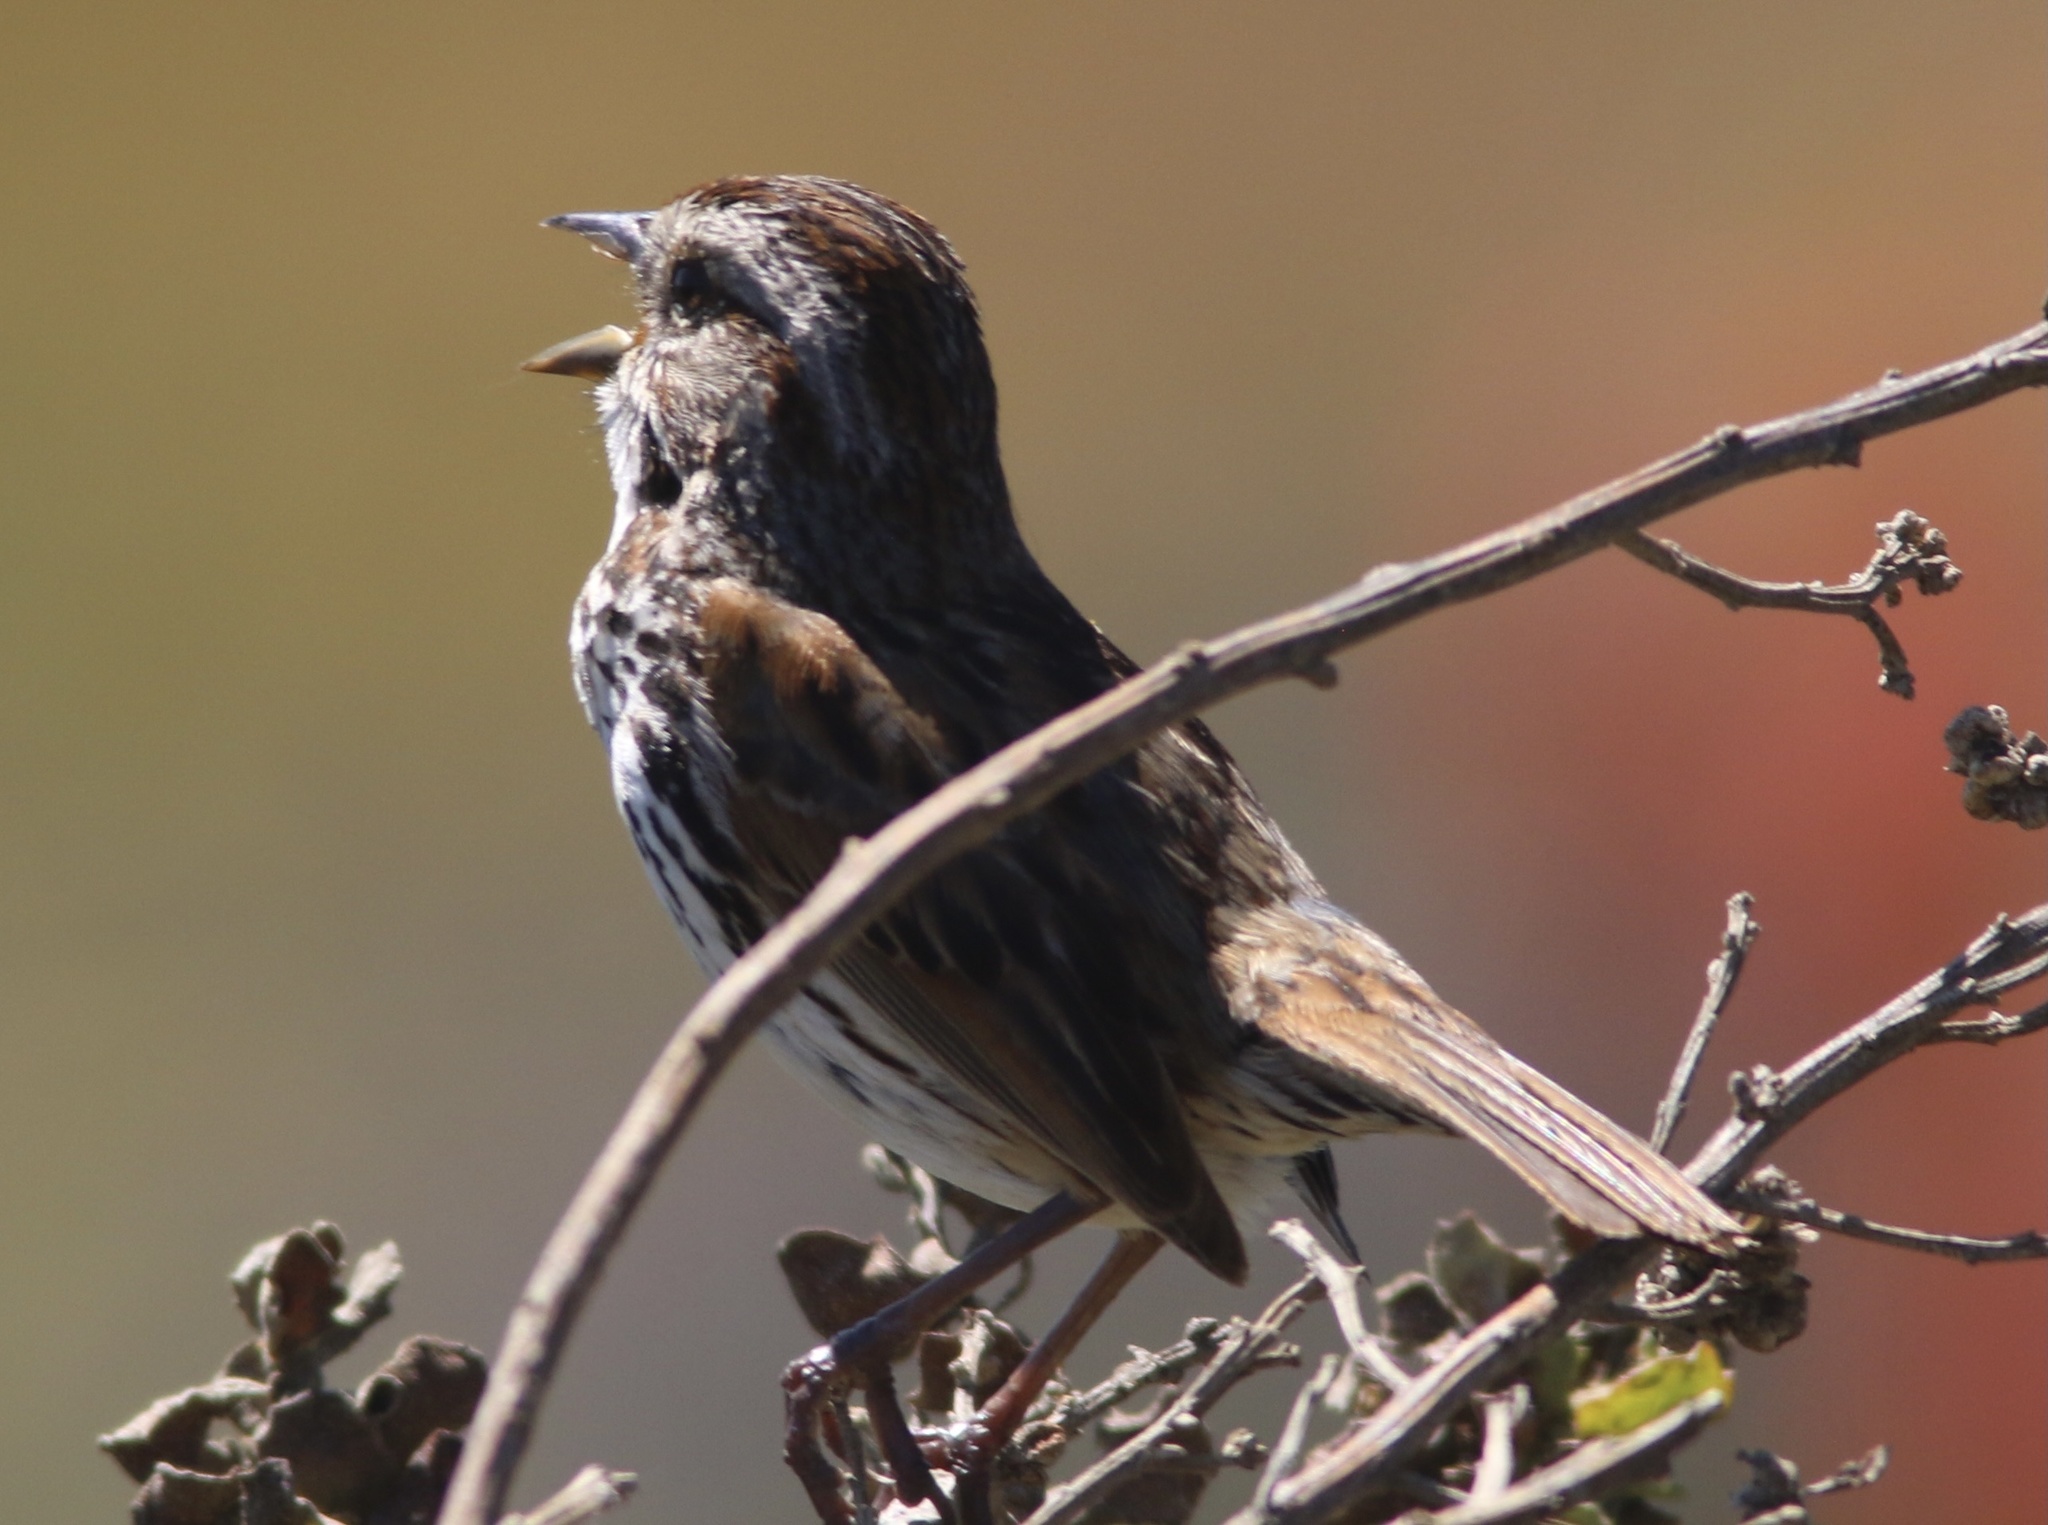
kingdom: Animalia
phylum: Chordata
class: Aves
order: Passeriformes
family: Passerellidae
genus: Melospiza
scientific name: Melospiza melodia
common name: Song sparrow
